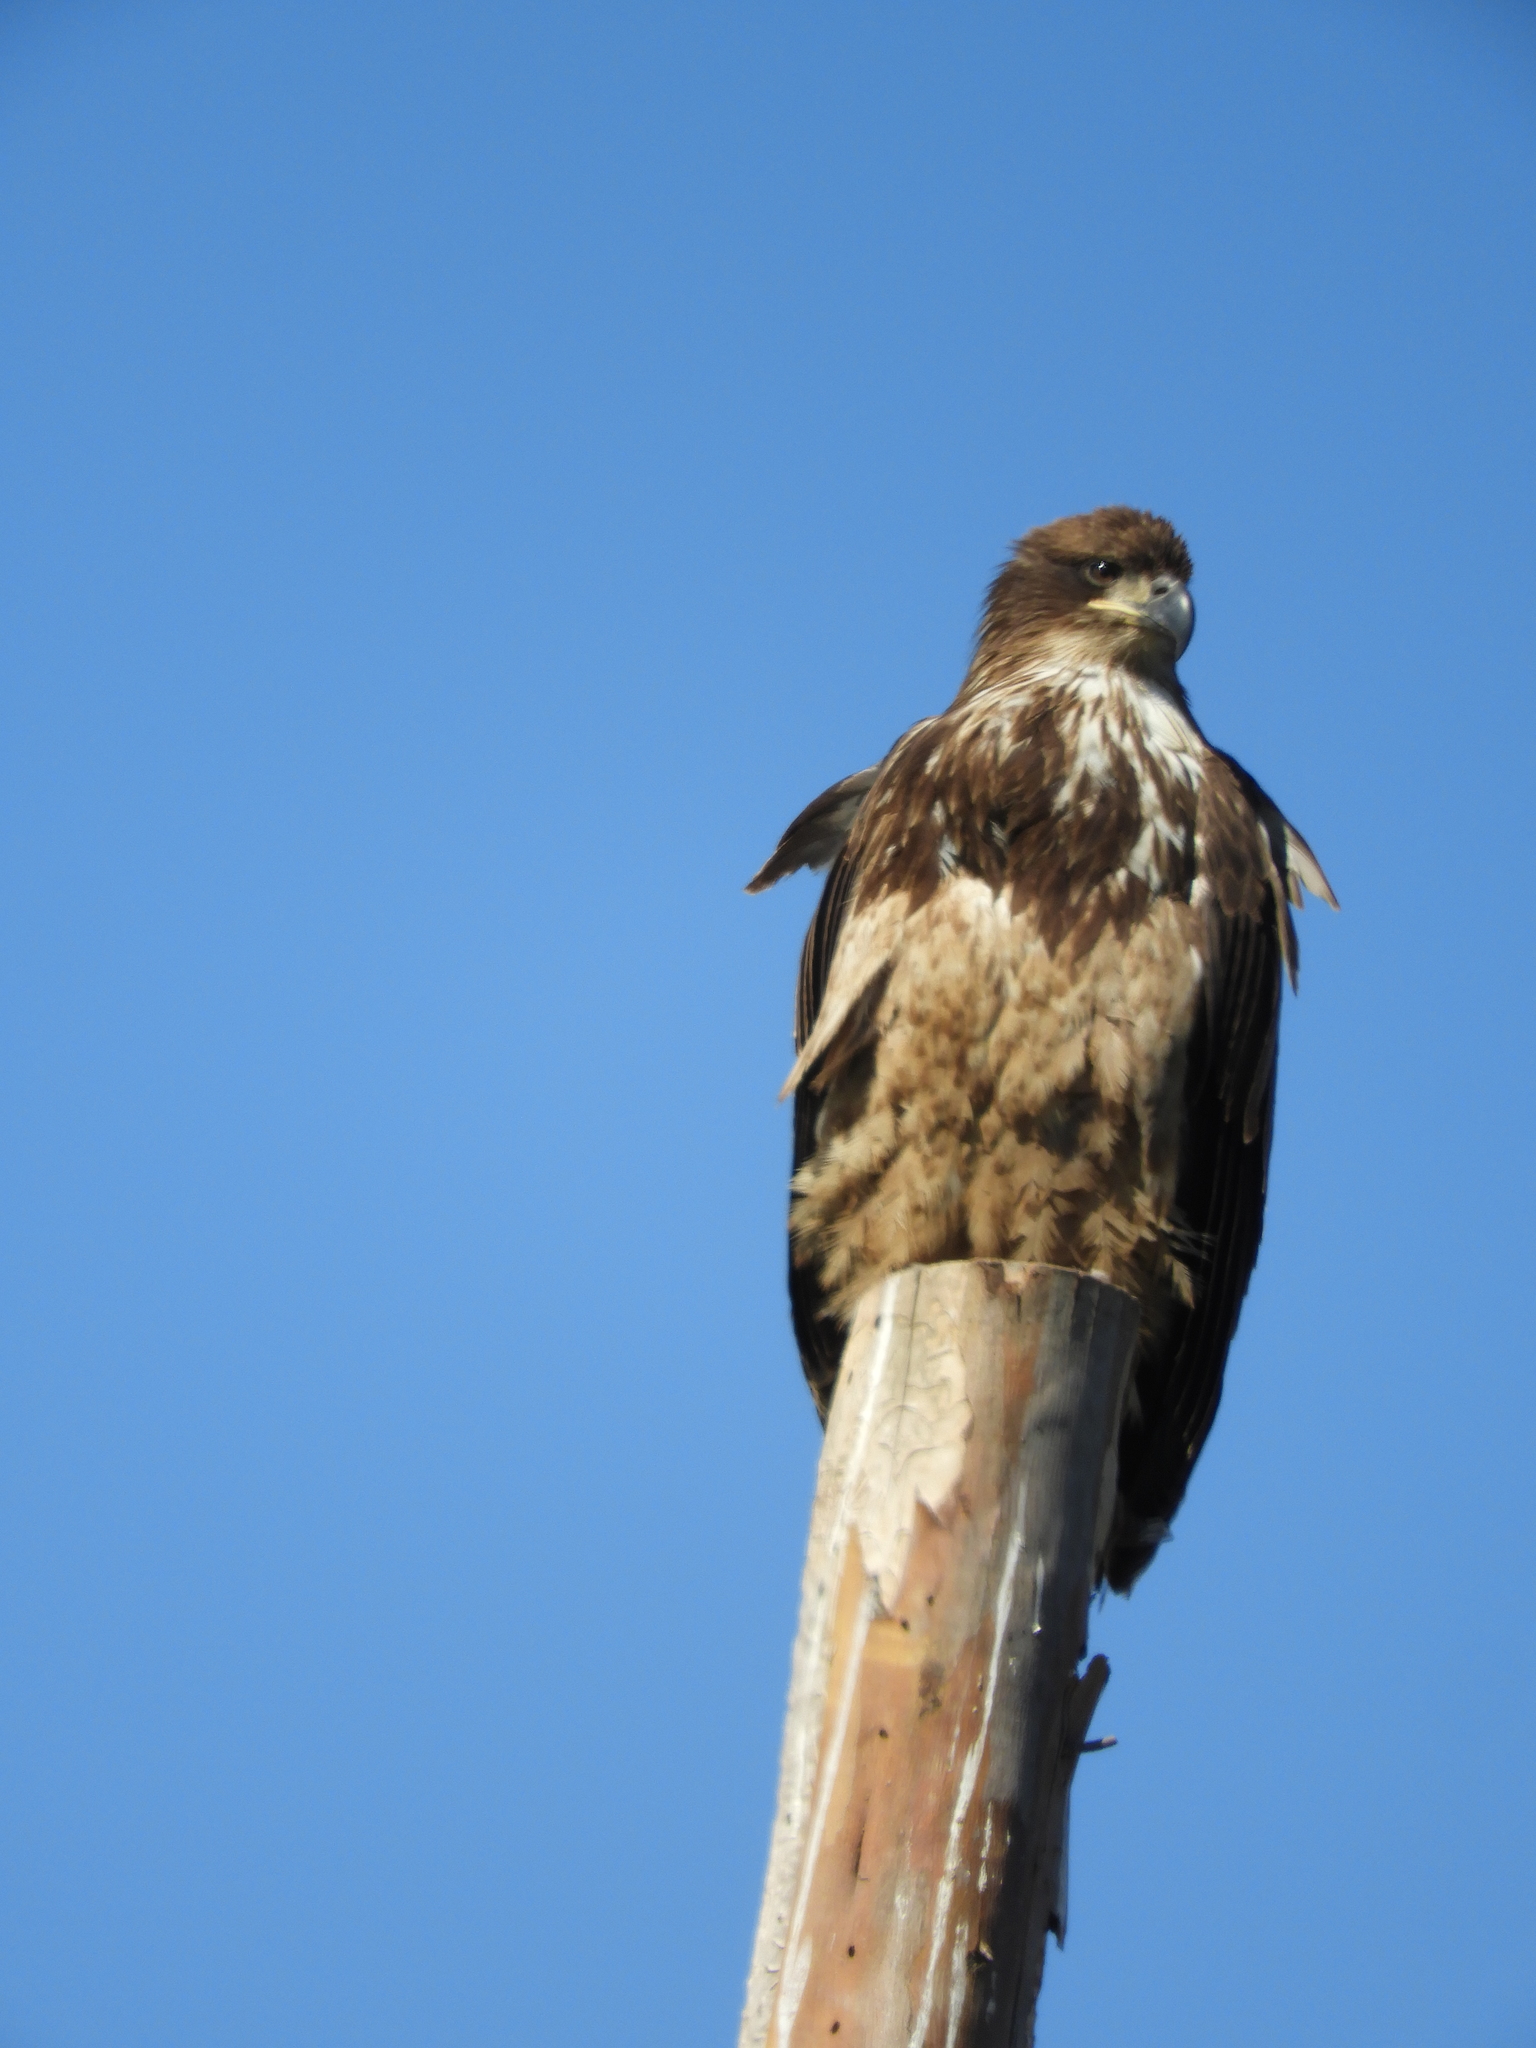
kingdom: Animalia
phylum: Chordata
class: Aves
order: Accipitriformes
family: Accipitridae
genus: Haliaeetus
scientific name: Haliaeetus leucocephalus
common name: Bald eagle
